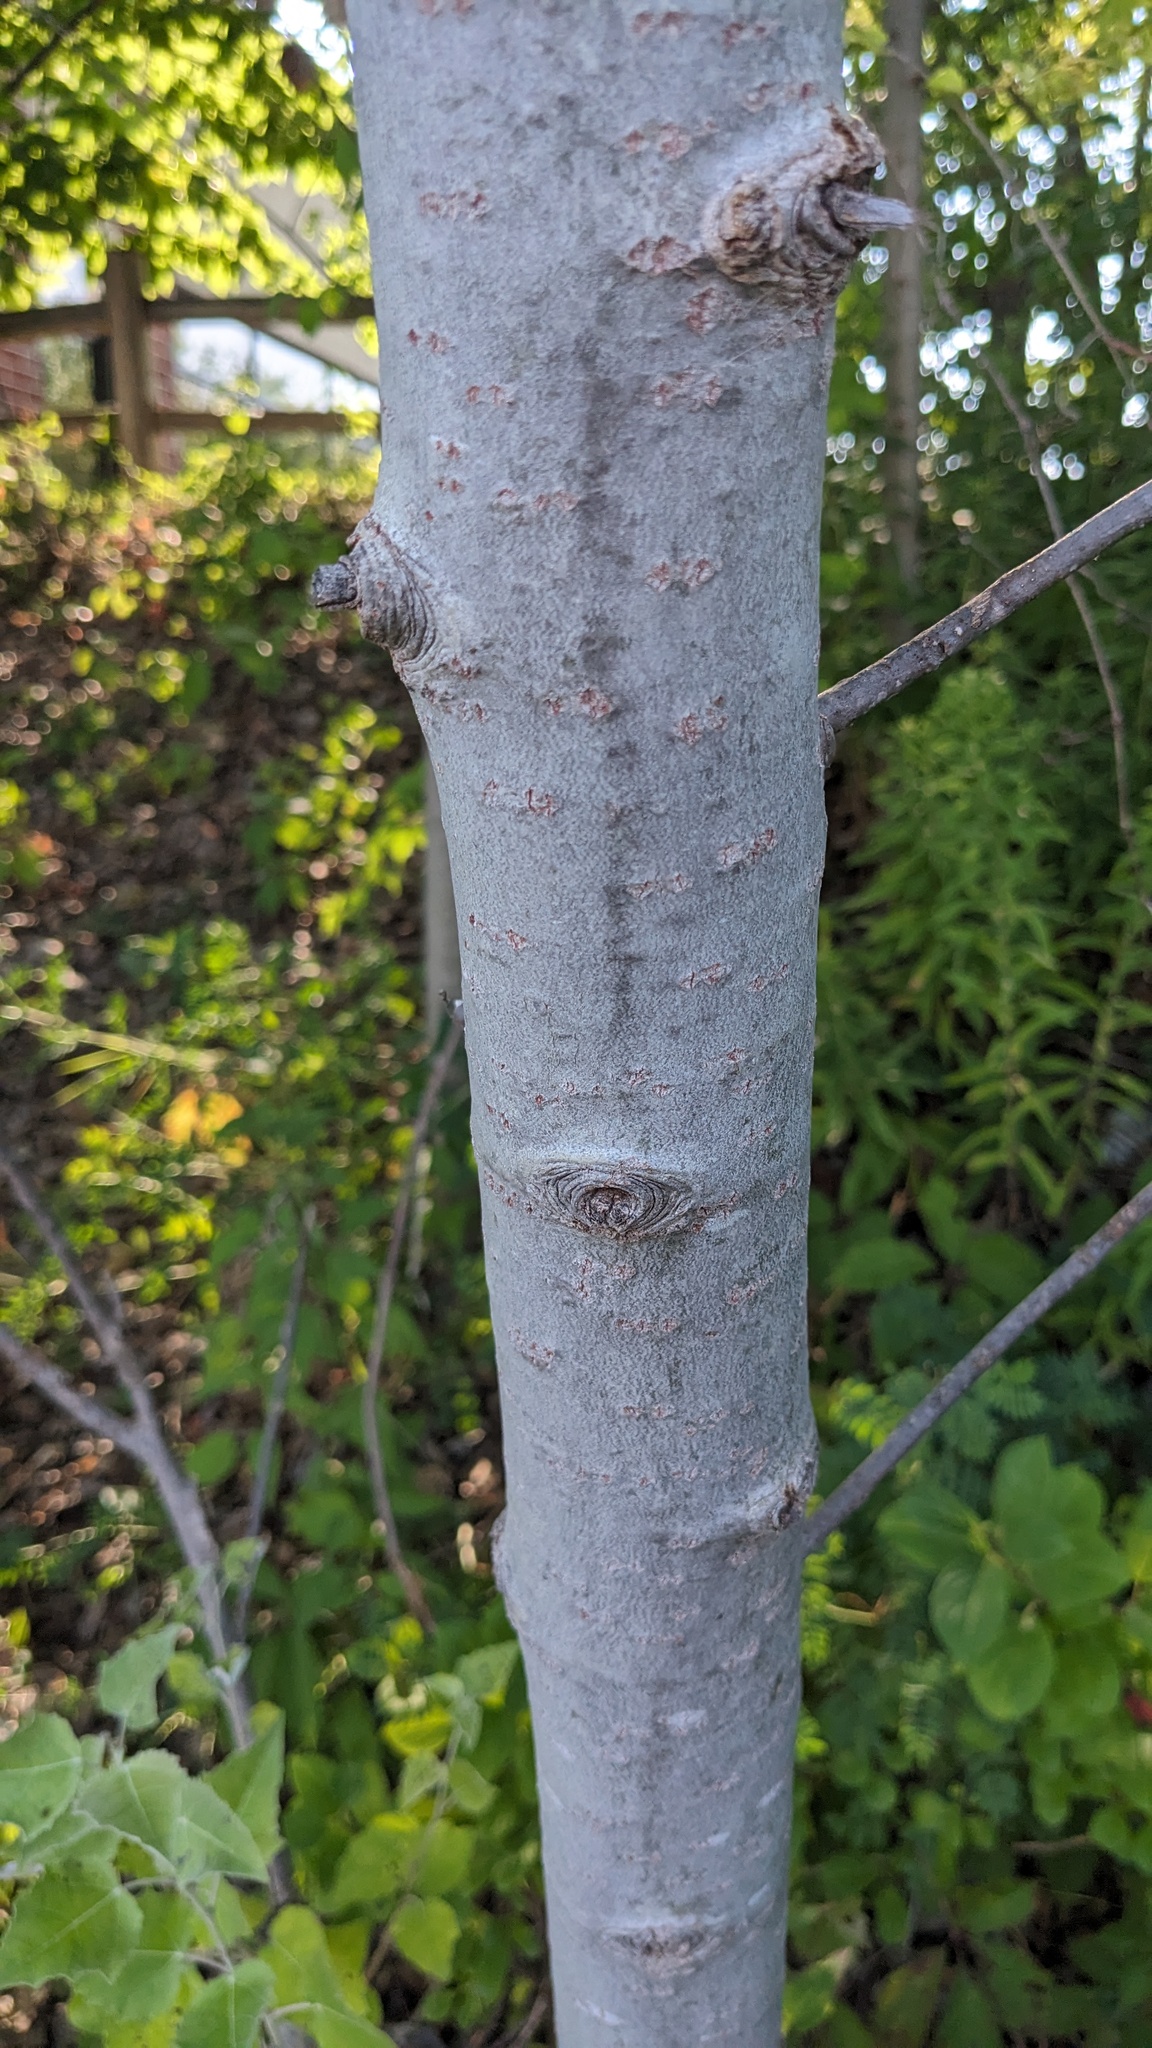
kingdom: Plantae
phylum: Tracheophyta
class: Magnoliopsida
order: Malpighiales
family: Salicaceae
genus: Populus
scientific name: Populus grandidentata
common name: Bigtooth aspen
